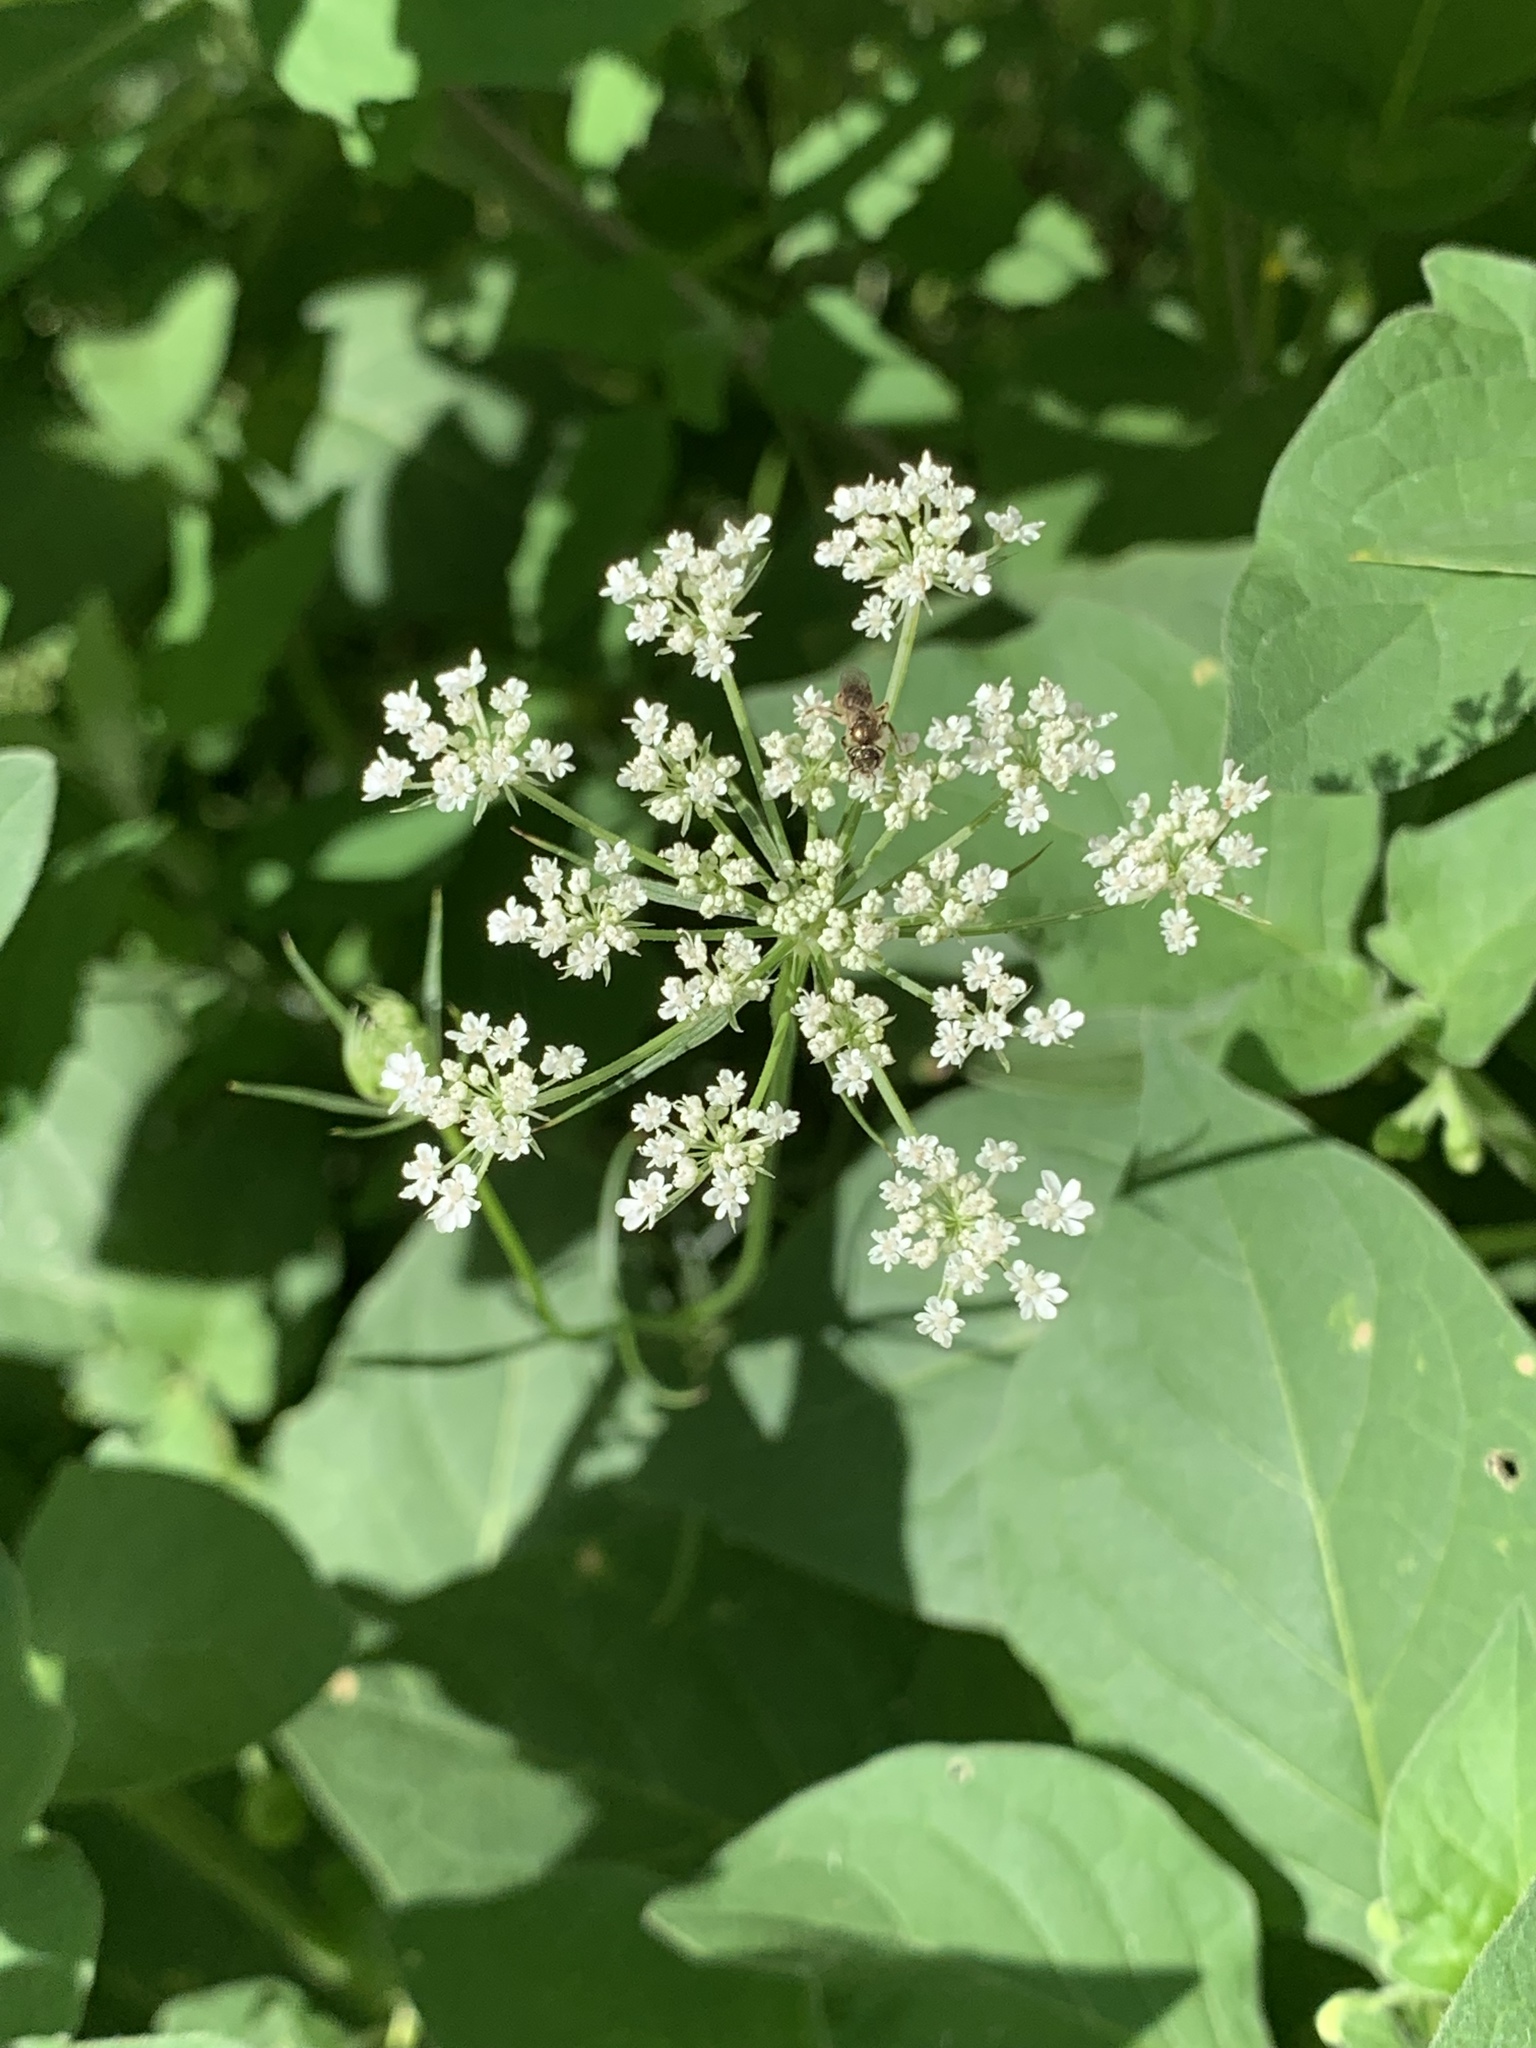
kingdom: Plantae
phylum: Tracheophyta
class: Magnoliopsida
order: Apiales
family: Apiaceae
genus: Daucus
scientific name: Daucus carota
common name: Wild carrot
